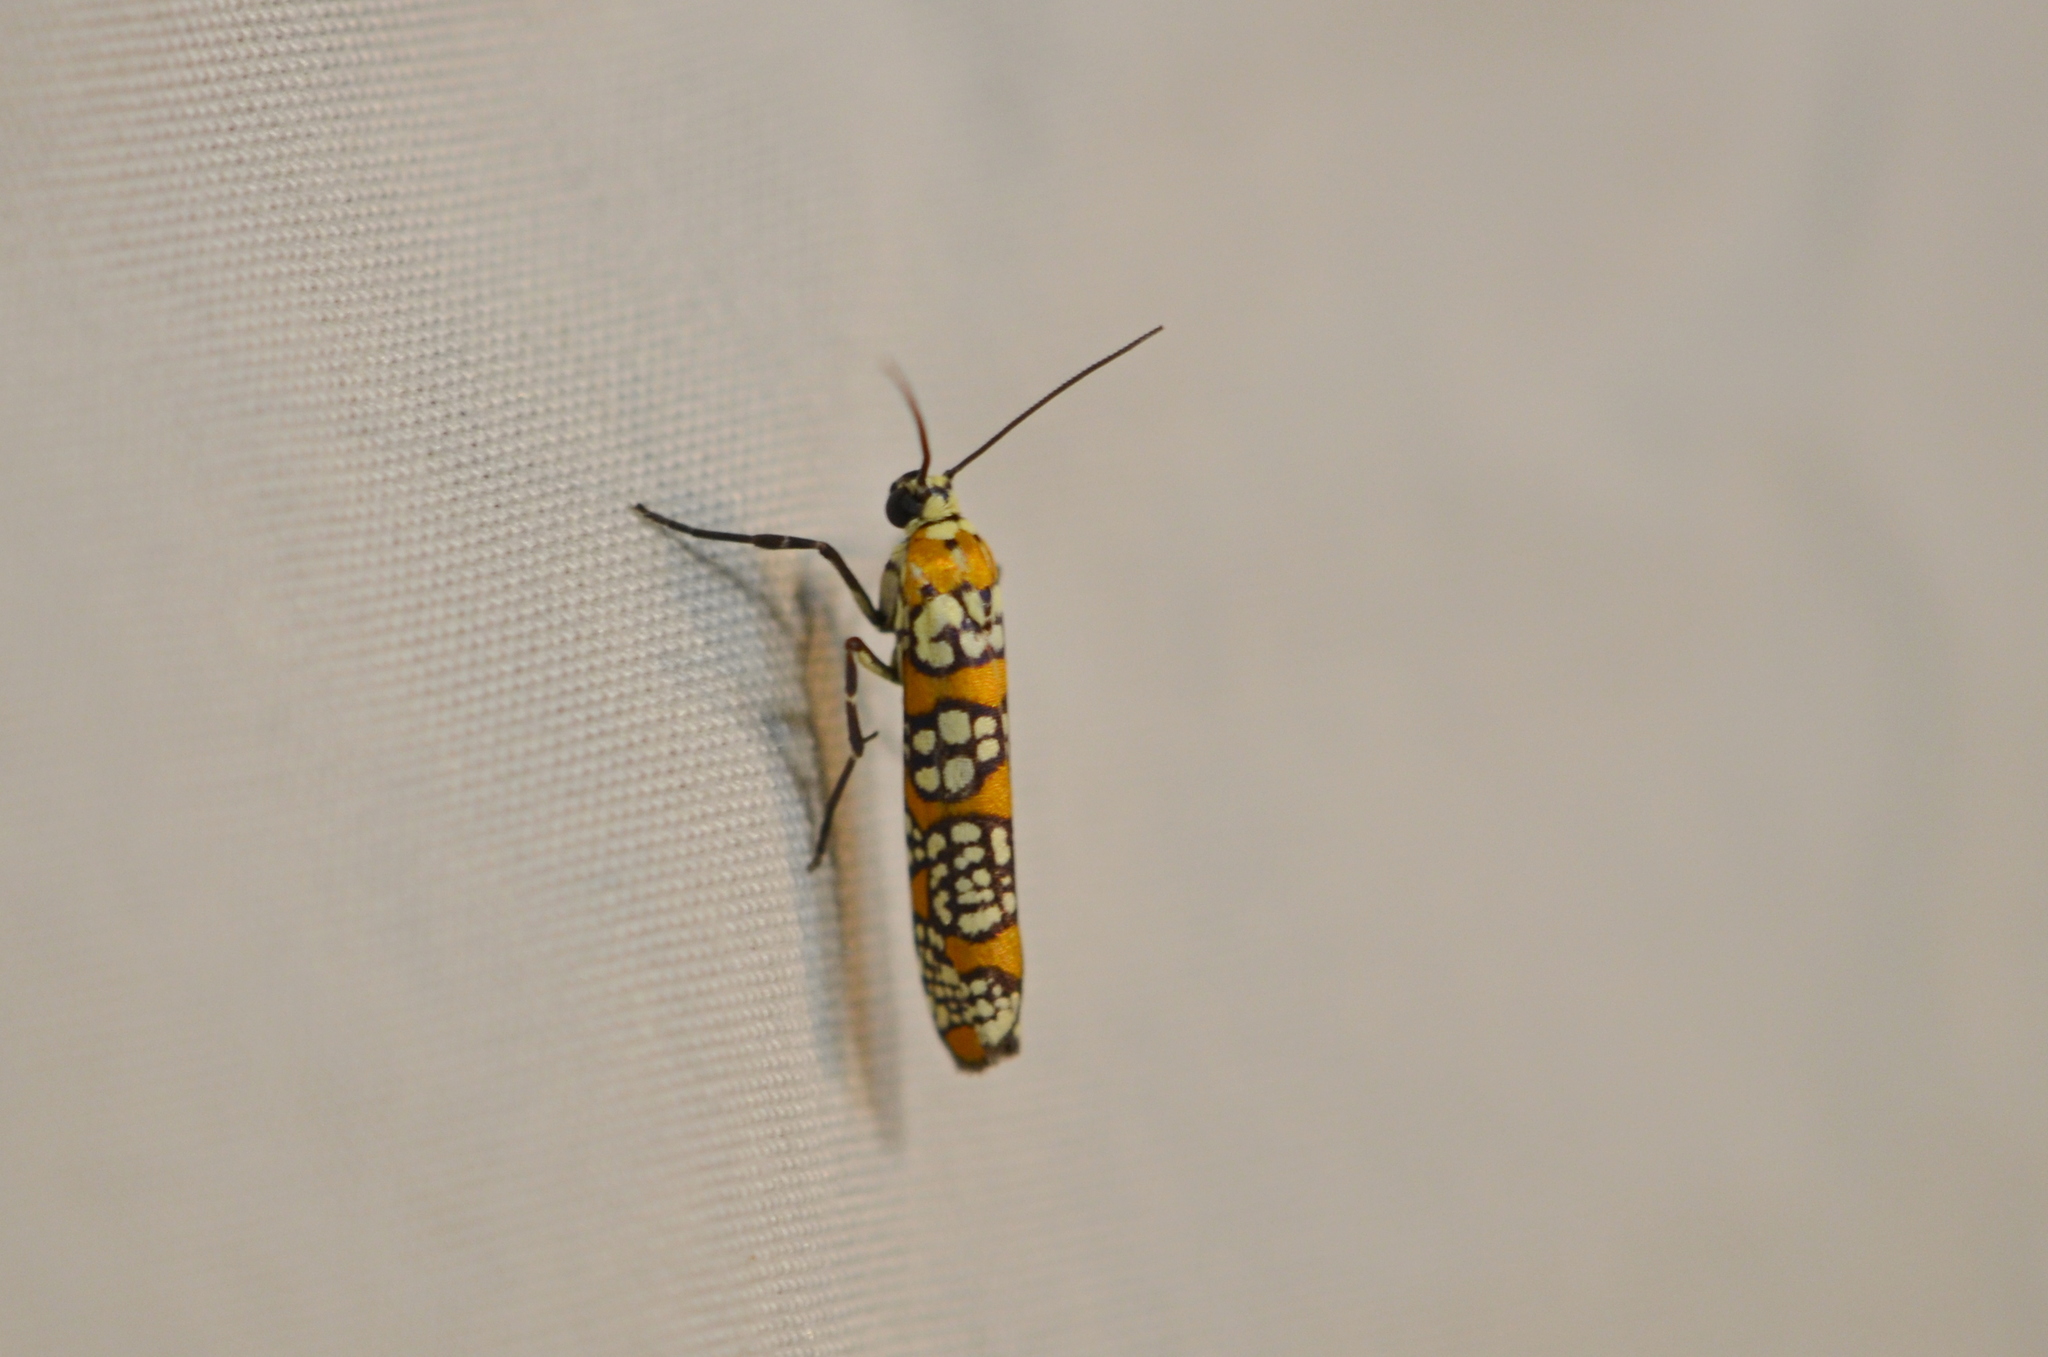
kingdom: Animalia
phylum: Arthropoda
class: Insecta
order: Lepidoptera
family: Attevidae
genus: Atteva
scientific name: Atteva punctella
